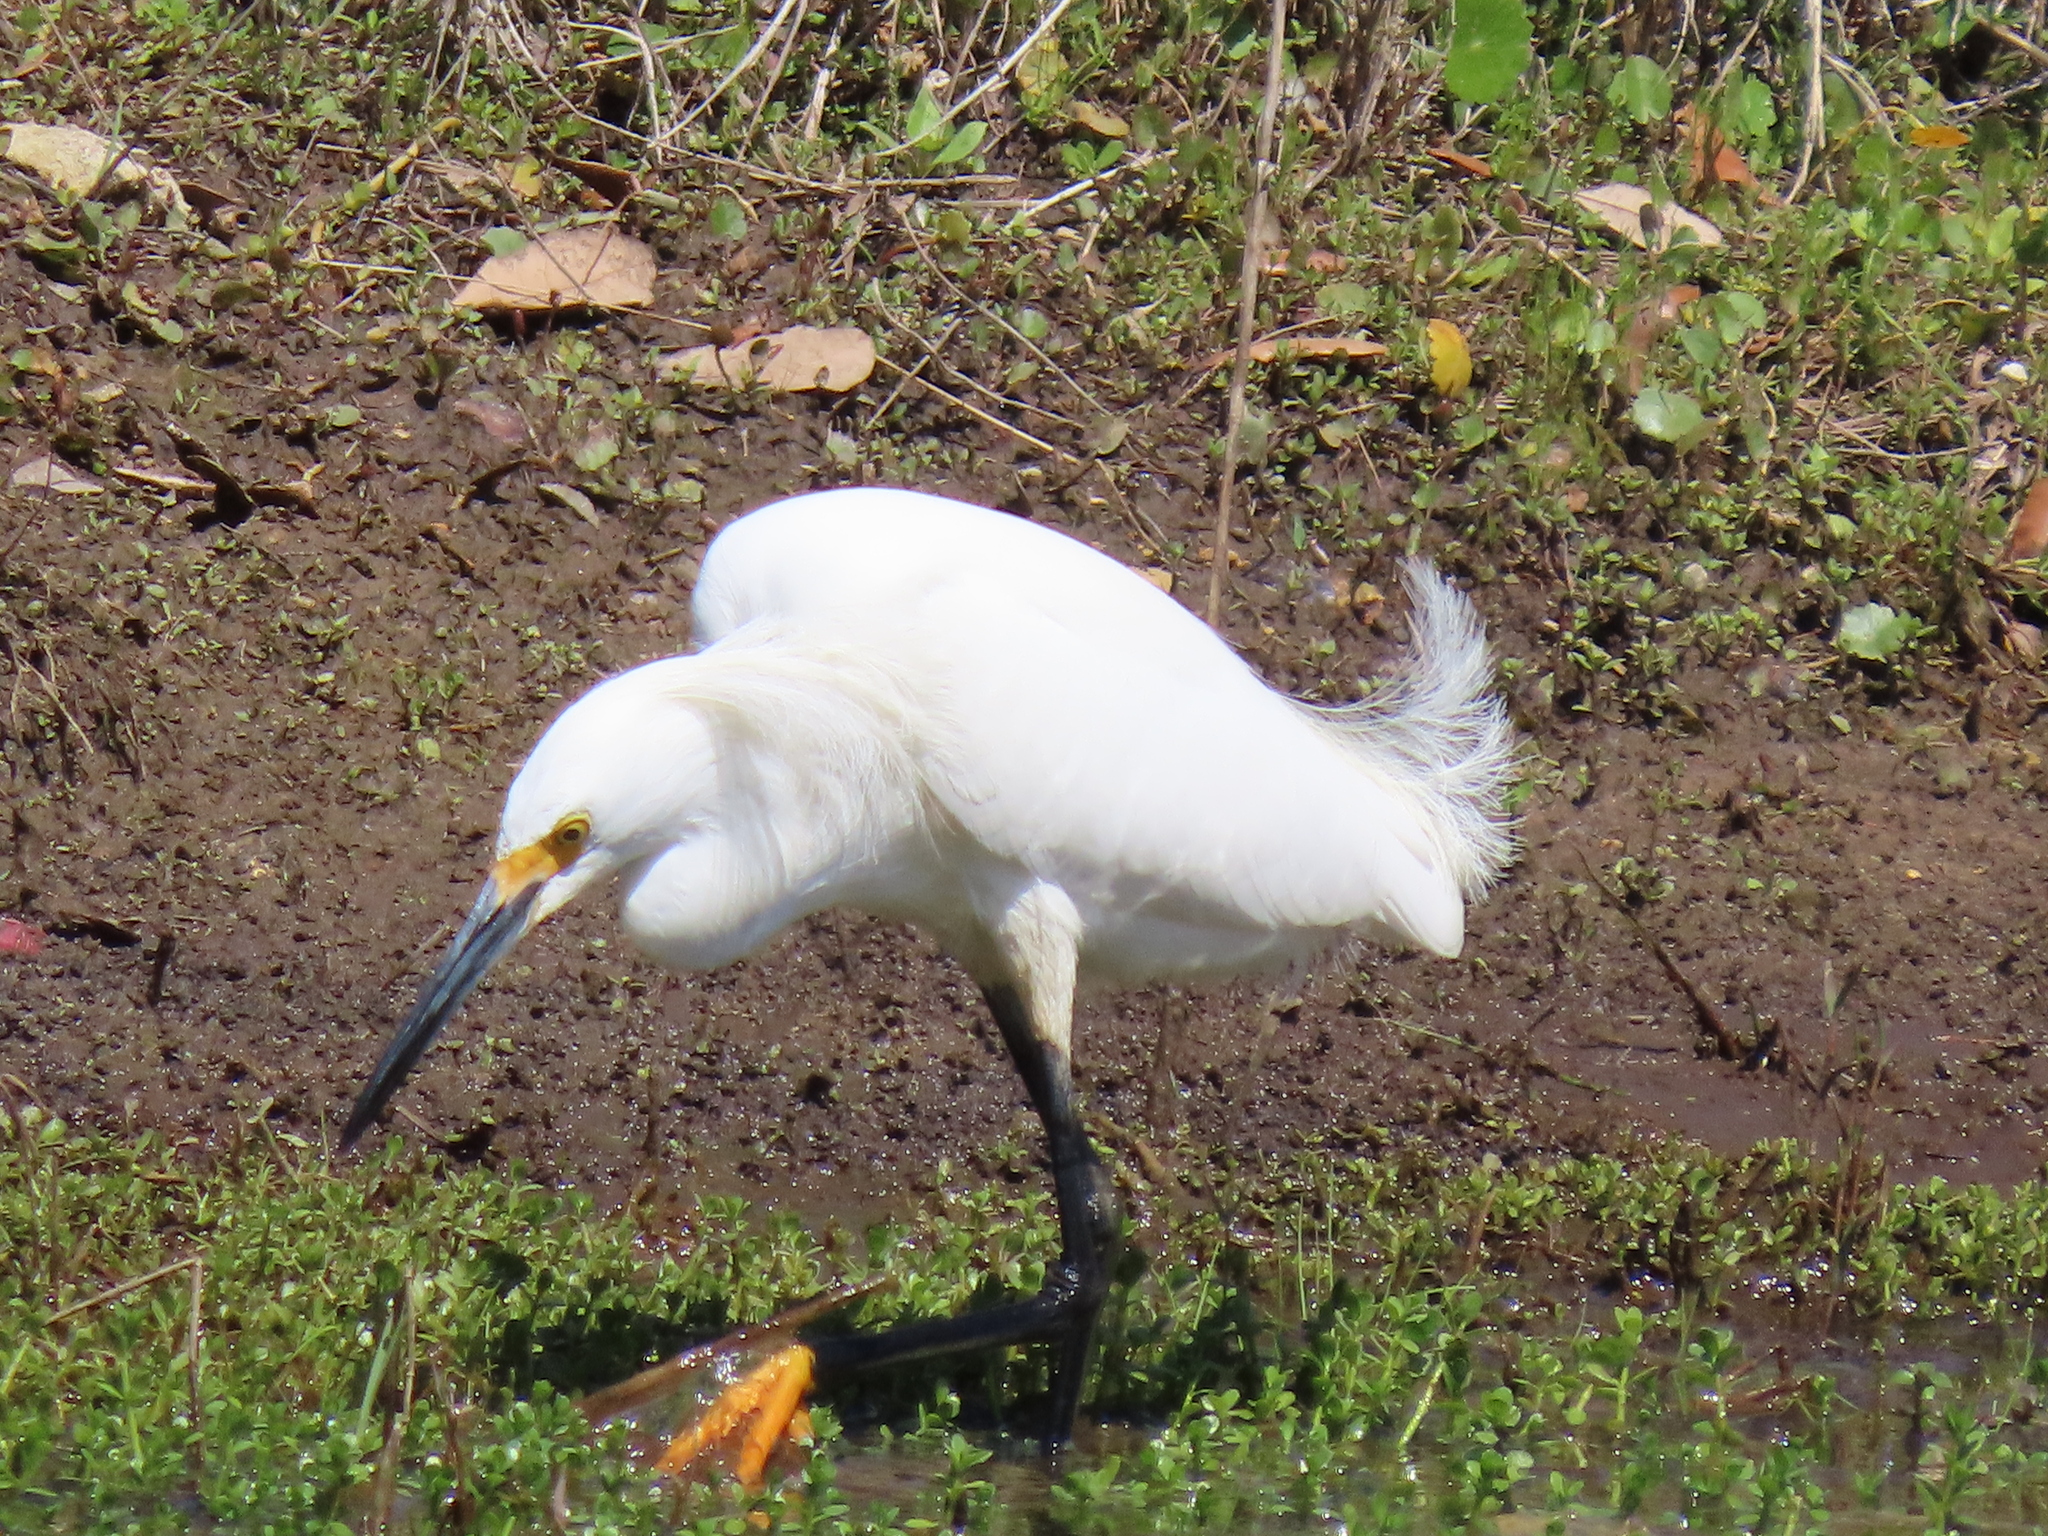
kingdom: Animalia
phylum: Chordata
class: Aves
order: Pelecaniformes
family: Ardeidae
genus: Egretta
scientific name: Egretta thula
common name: Snowy egret
